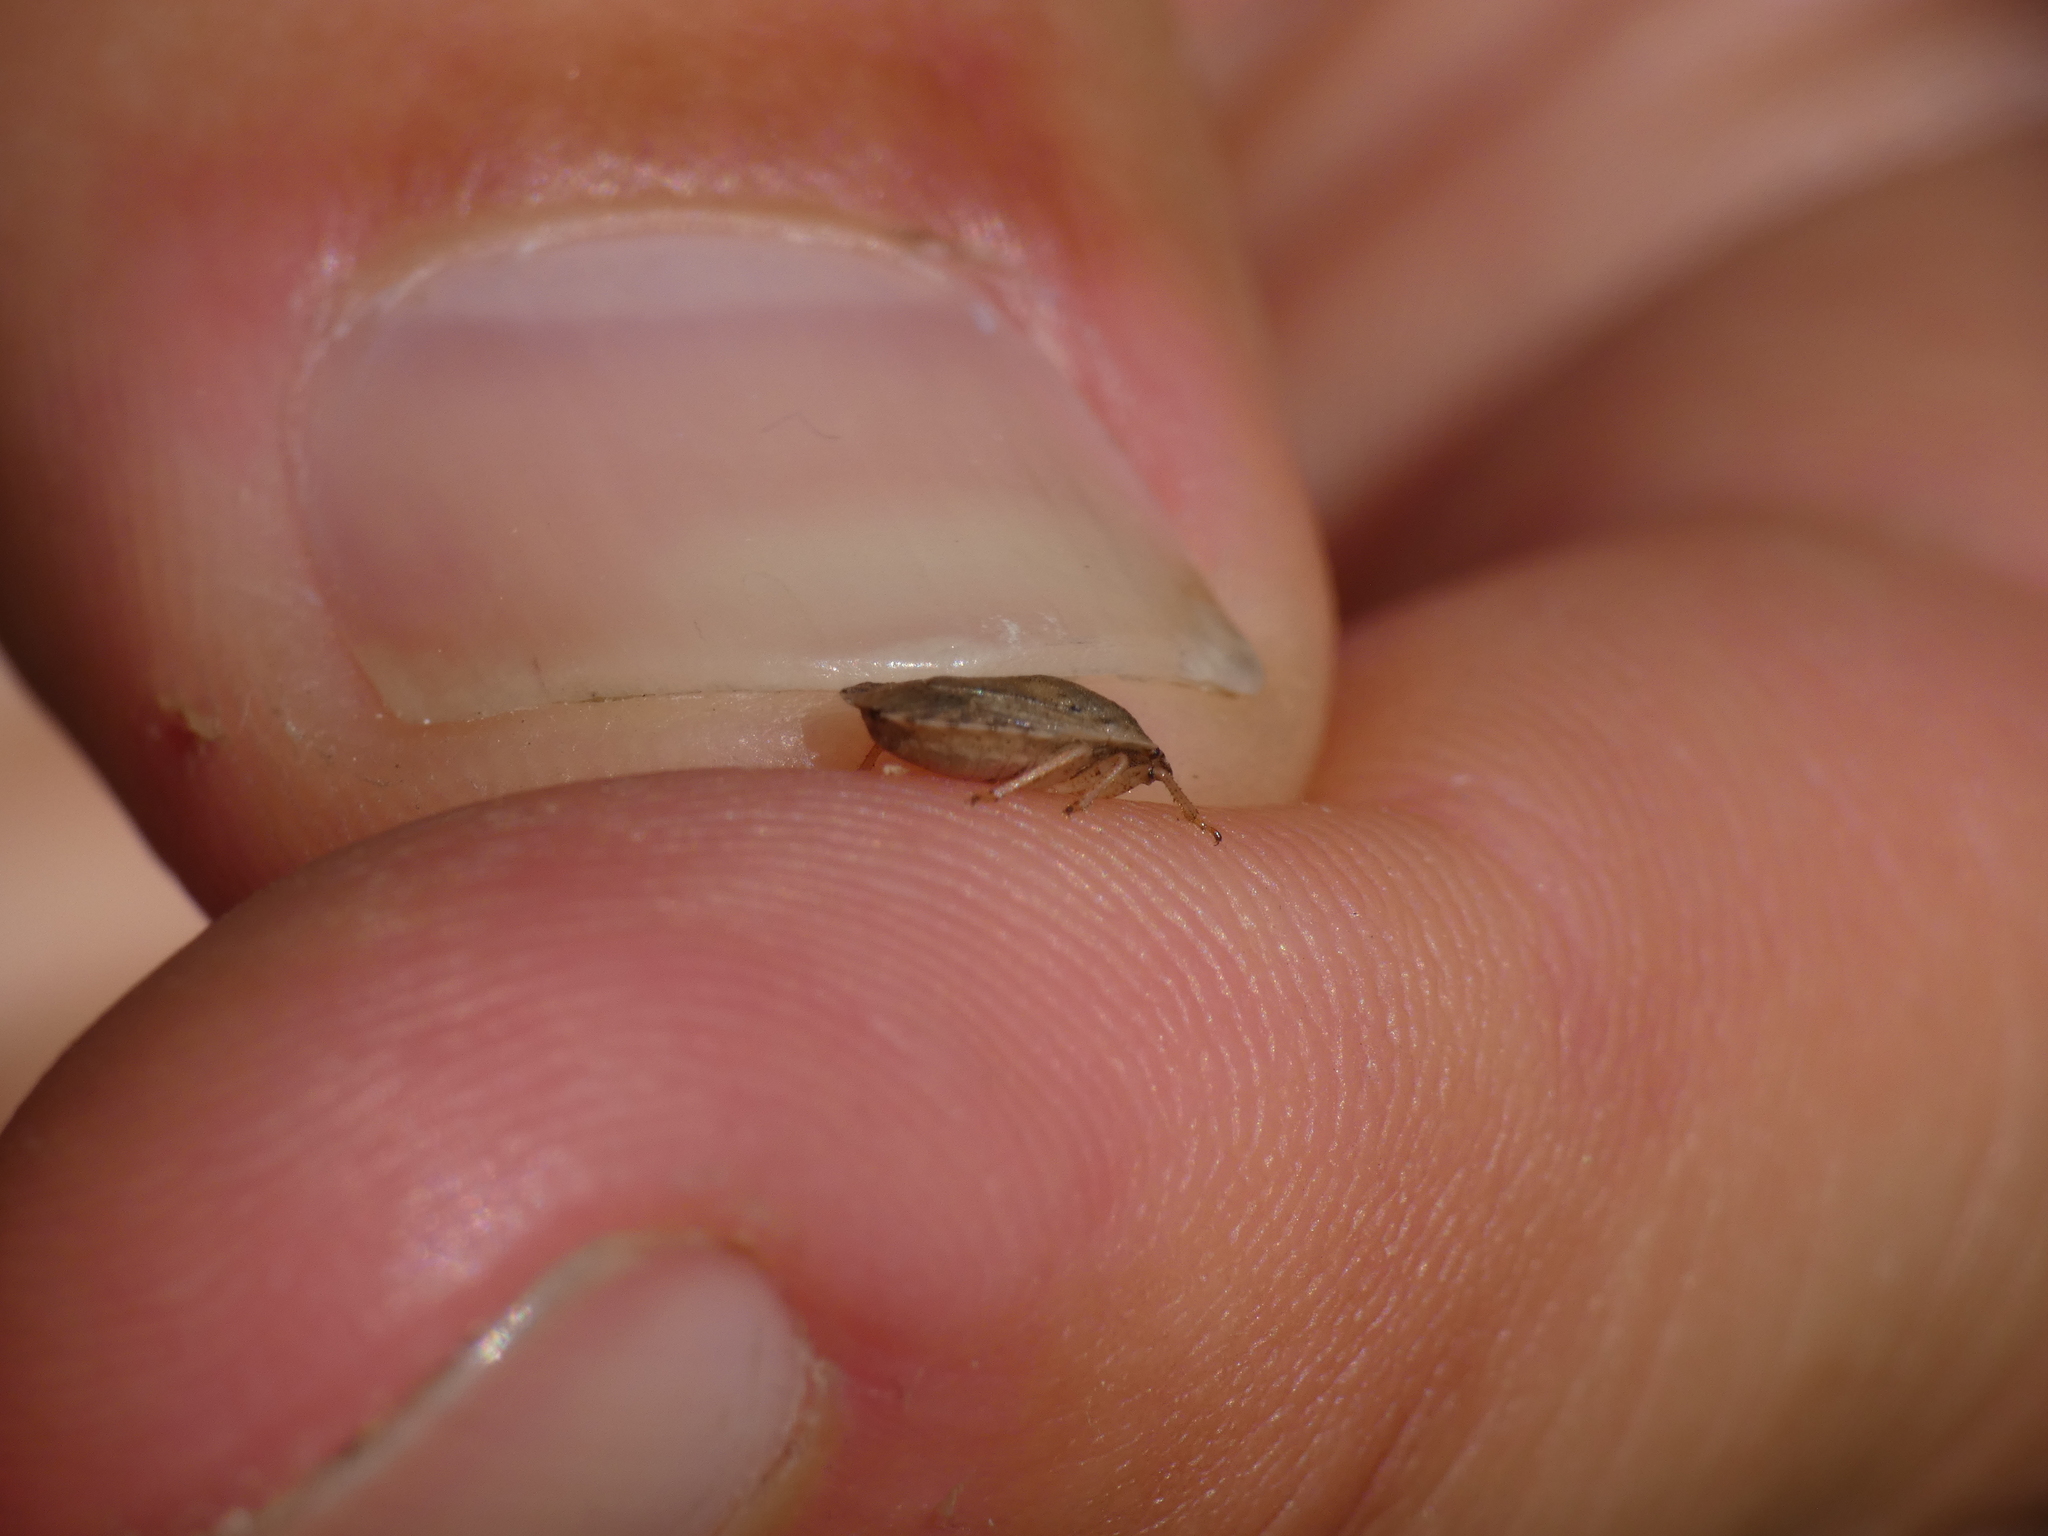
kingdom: Animalia
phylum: Arthropoda
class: Insecta
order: Hemiptera
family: Pentatomidae
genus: Sciocoris
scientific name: Sciocoris macrocephalus
